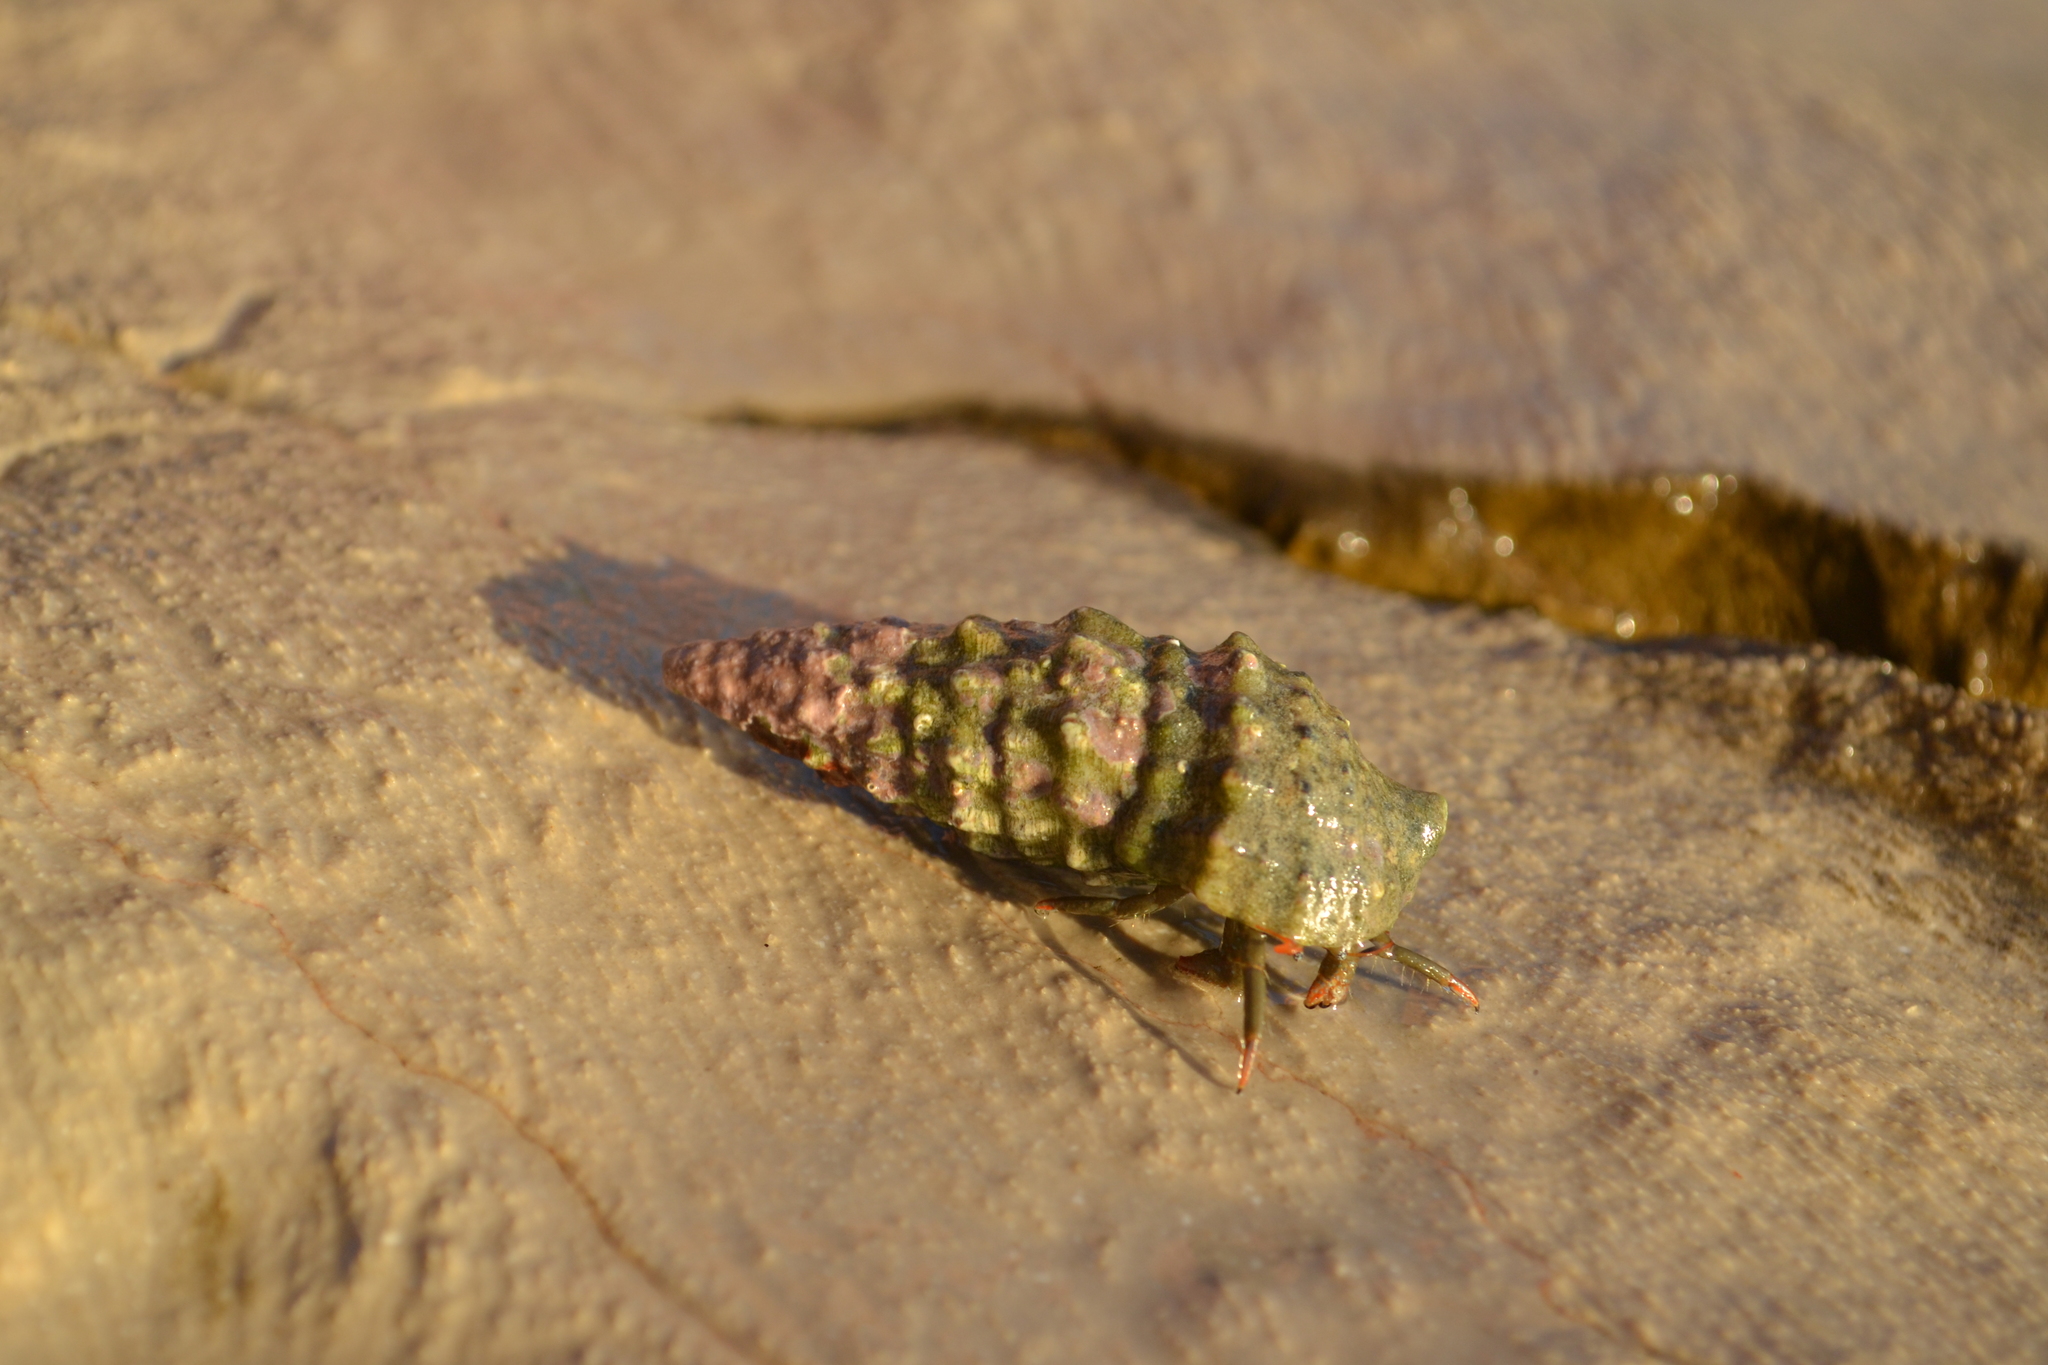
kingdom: Animalia
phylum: Arthropoda
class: Malacostraca
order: Decapoda
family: Diogenidae
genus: Clibanarius
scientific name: Clibanarius erythropus
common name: Hermit crab
